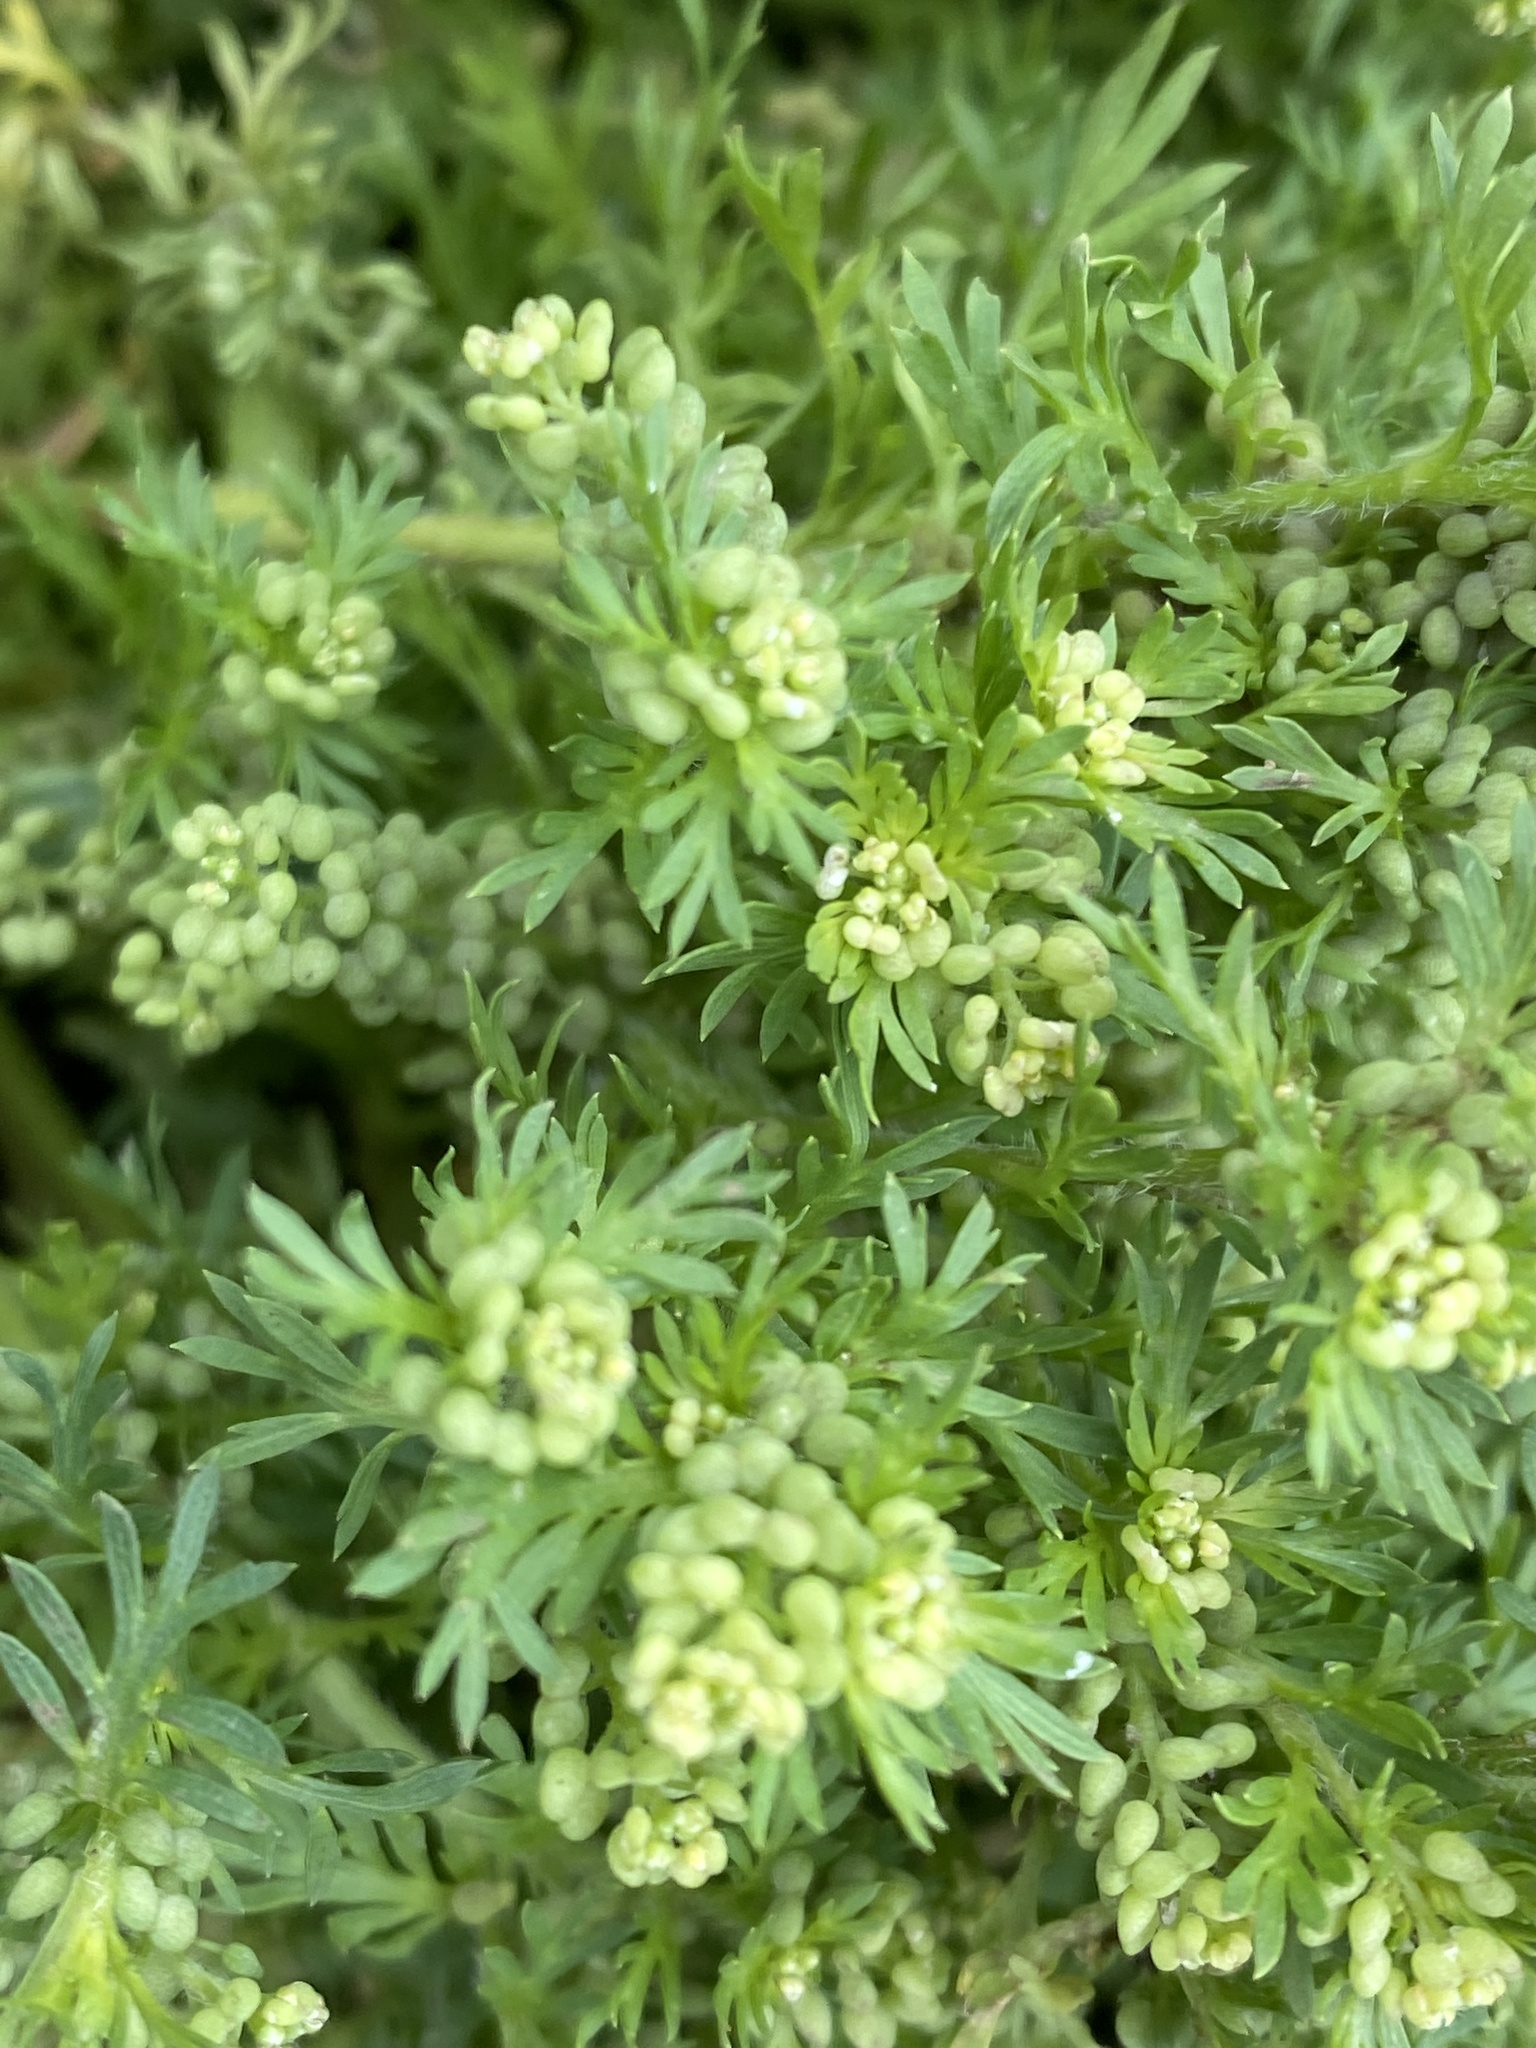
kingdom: Plantae
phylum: Tracheophyta
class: Magnoliopsida
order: Brassicales
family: Brassicaceae
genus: Lepidium
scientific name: Lepidium didymum
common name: Lesser swinecress
